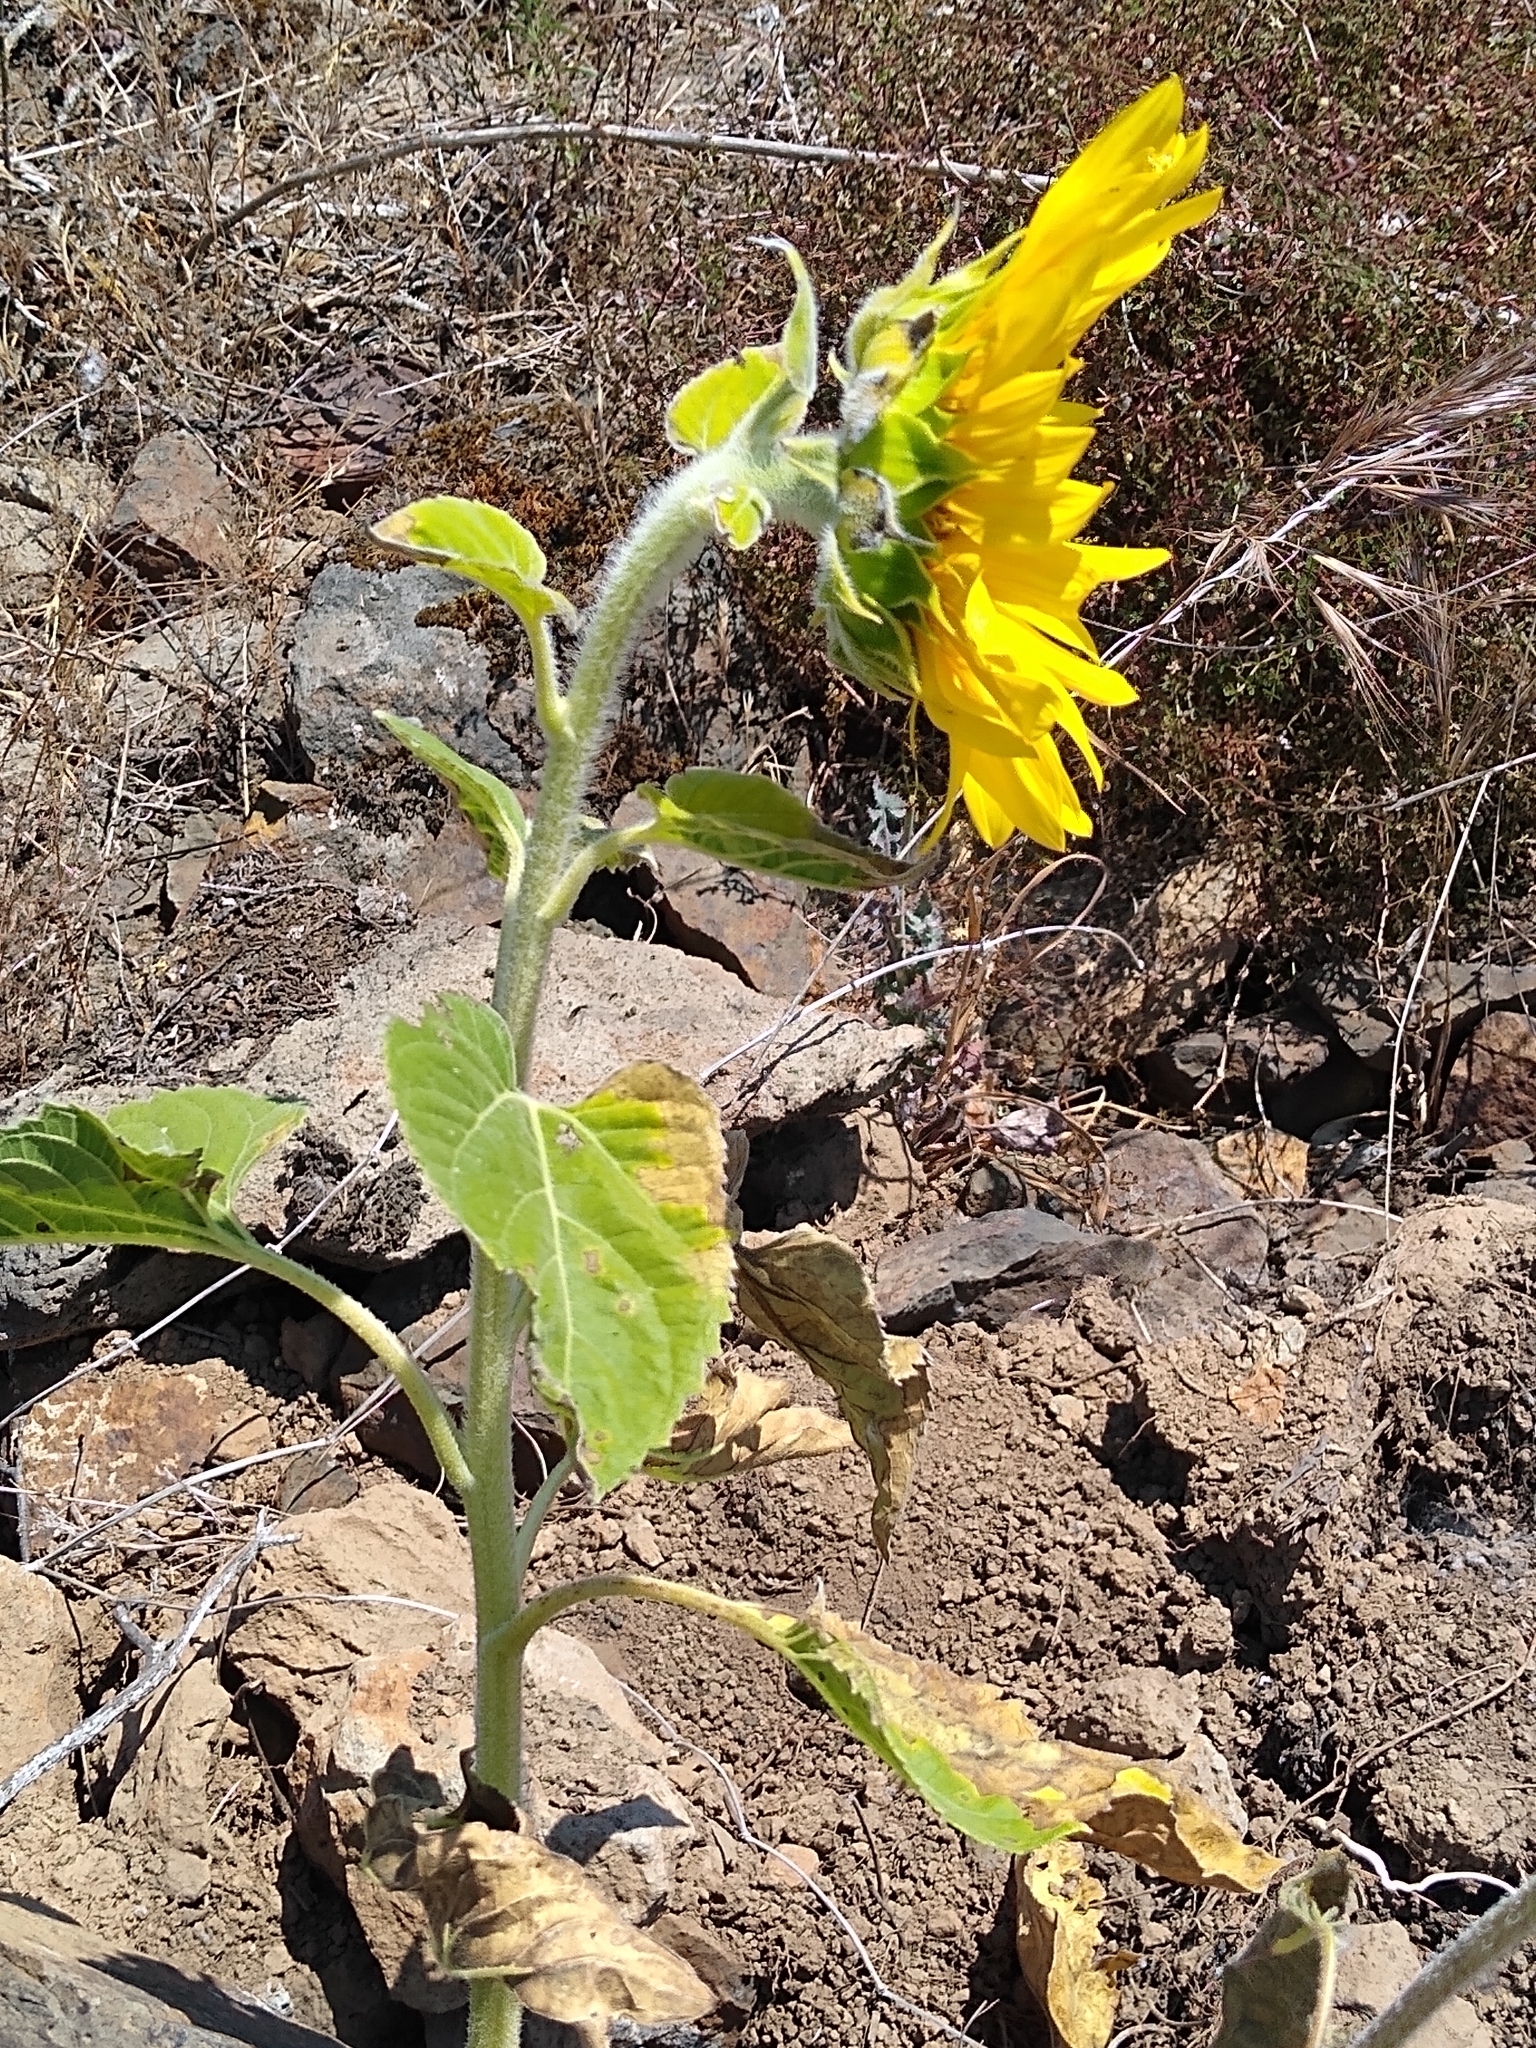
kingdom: Plantae
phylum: Tracheophyta
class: Magnoliopsida
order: Asterales
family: Asteraceae
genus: Helianthus
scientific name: Helianthus annuus
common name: Sunflower
